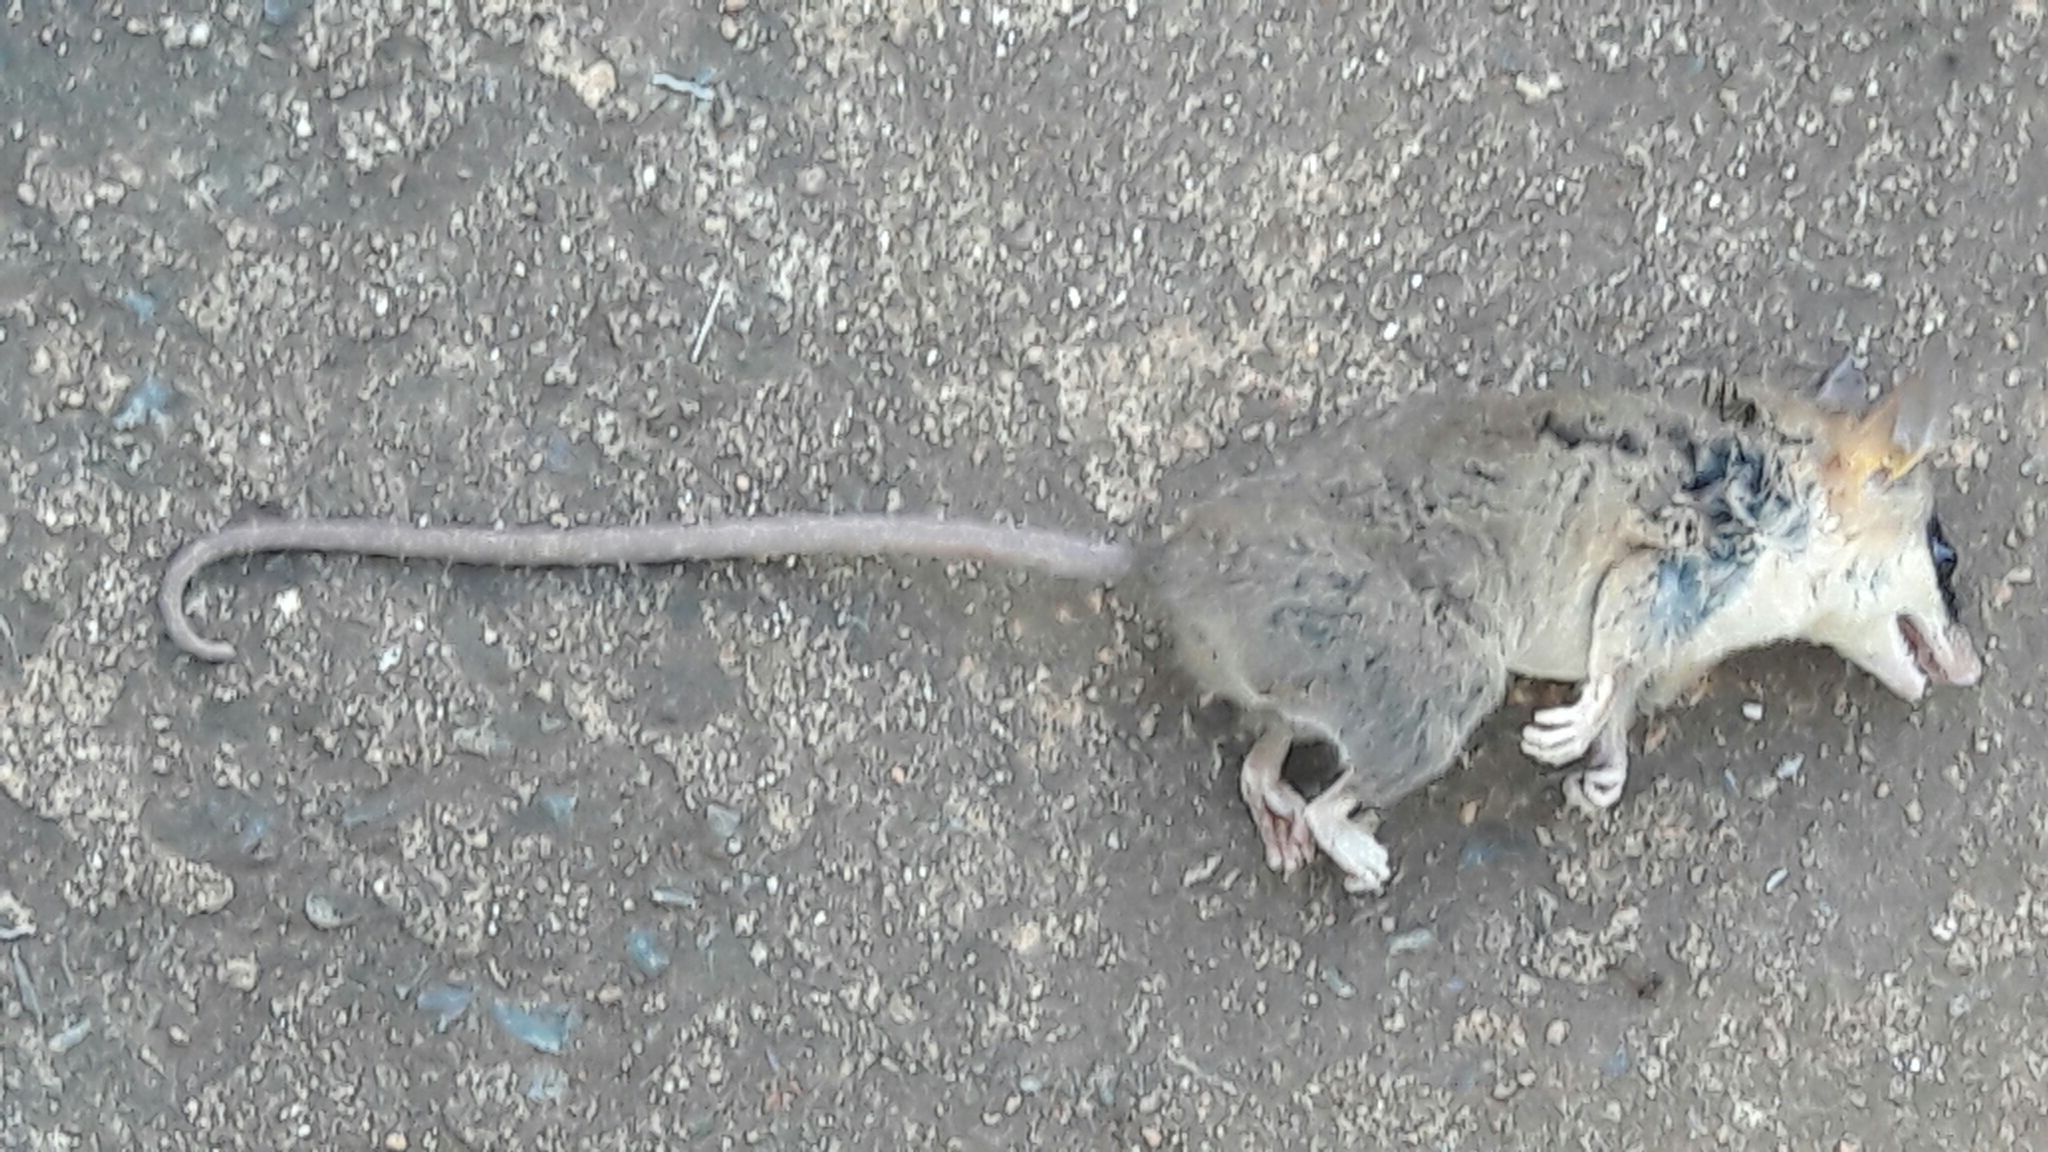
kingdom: Animalia
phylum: Chordata
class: Mammalia
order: Didelphimorphia
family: Didelphidae
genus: Gracilinanus
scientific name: Gracilinanus agilis
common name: Agile gracile opossum
